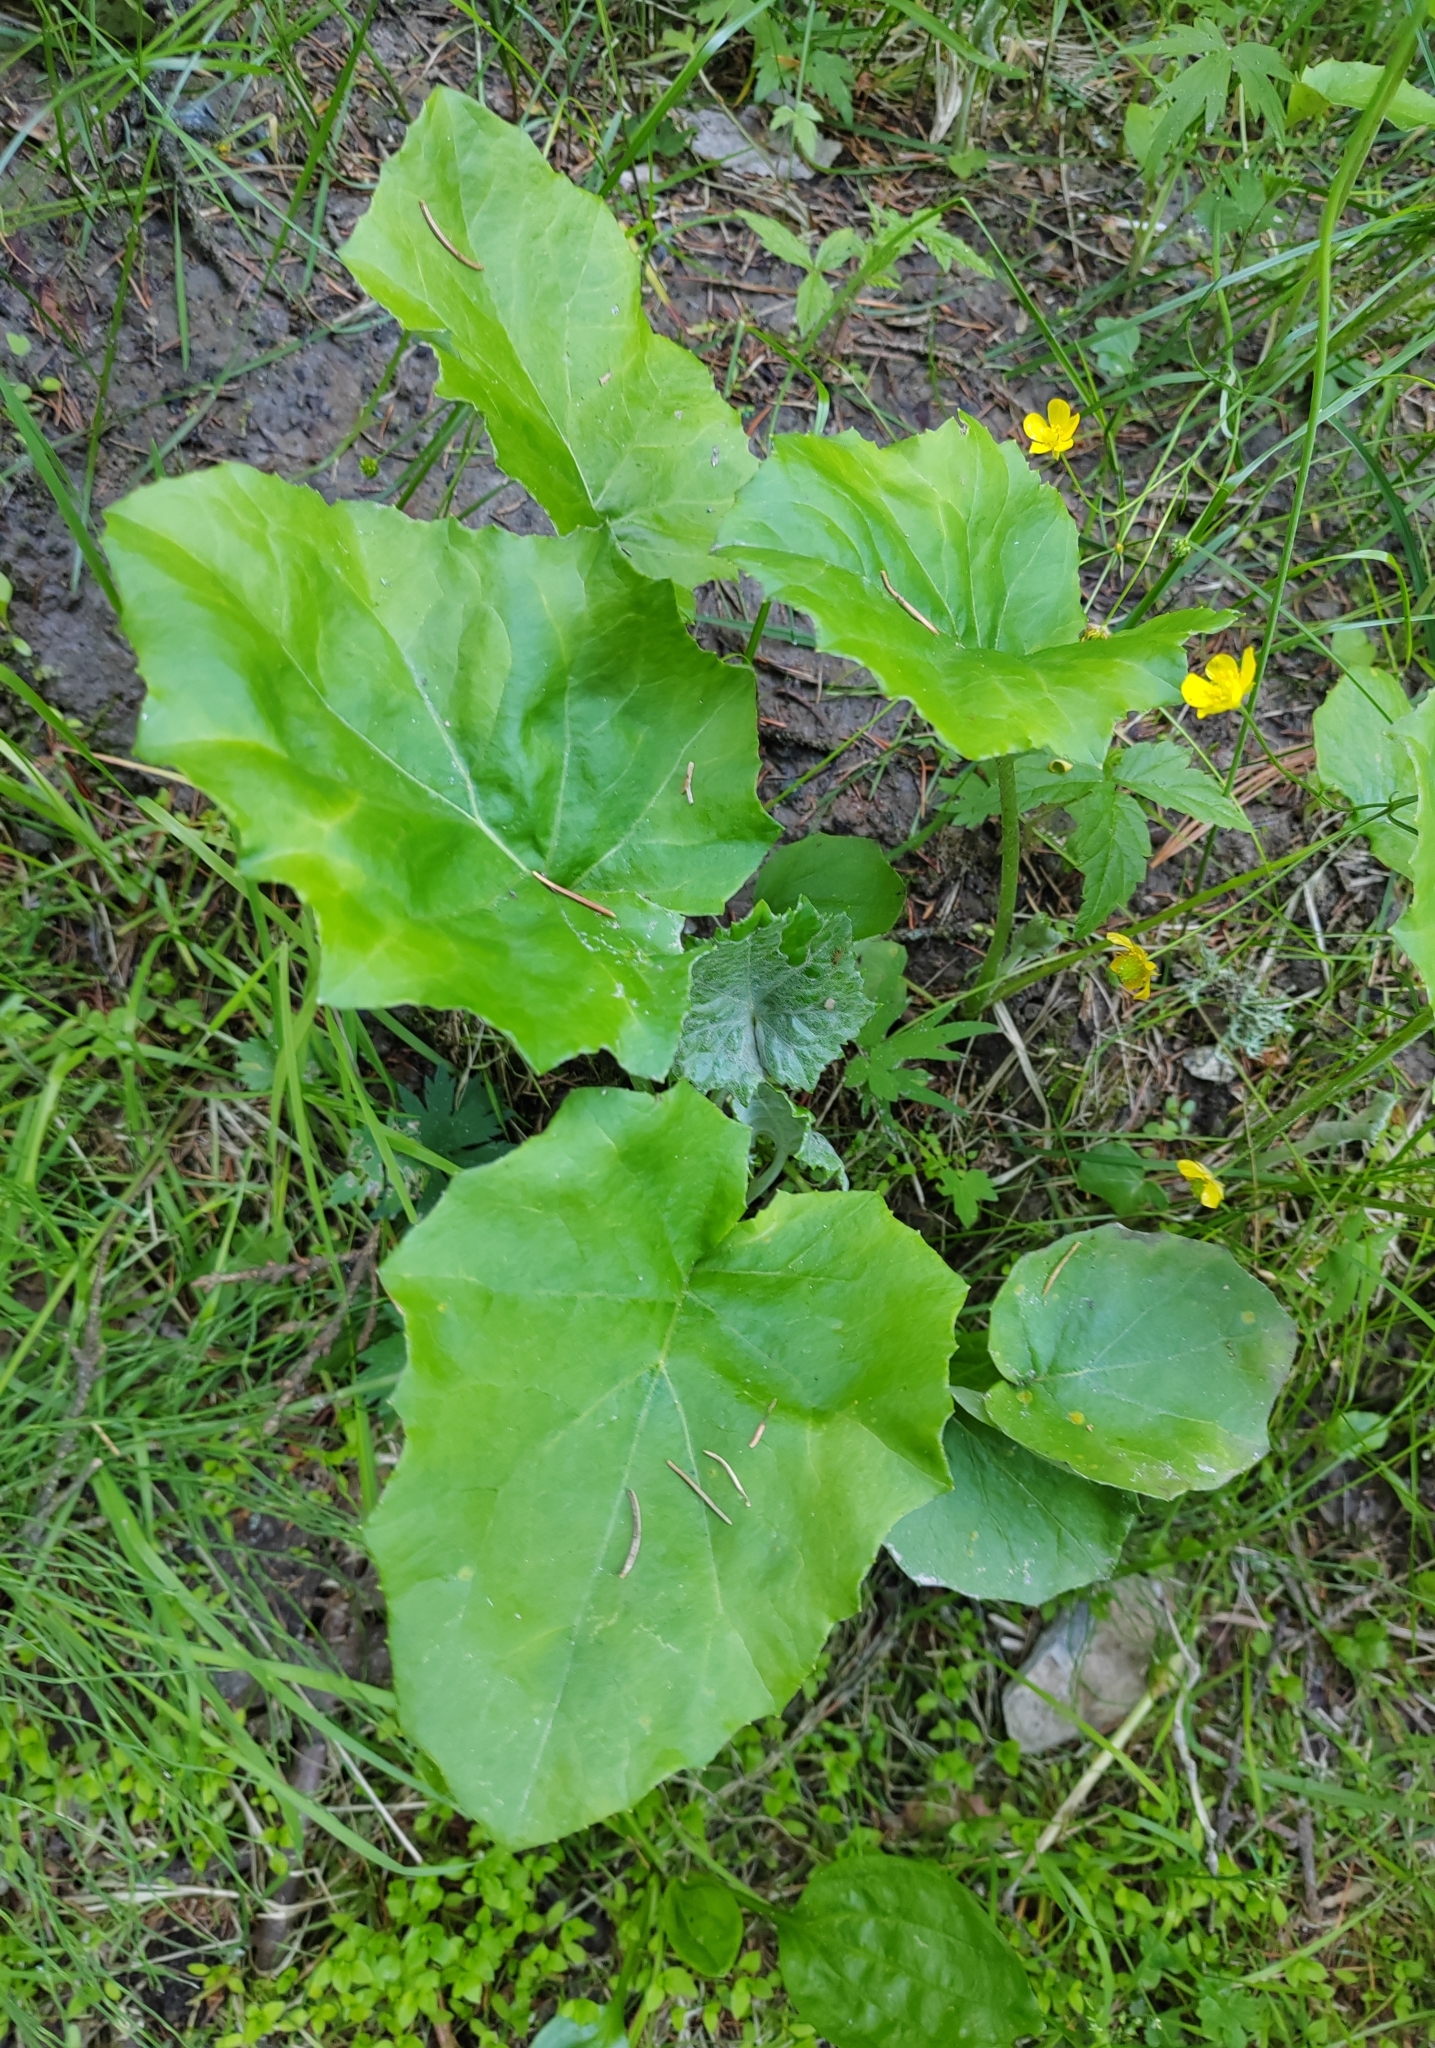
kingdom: Plantae
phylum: Tracheophyta
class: Magnoliopsida
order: Asterales
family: Asteraceae
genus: Tussilago
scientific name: Tussilago farfara
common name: Coltsfoot
